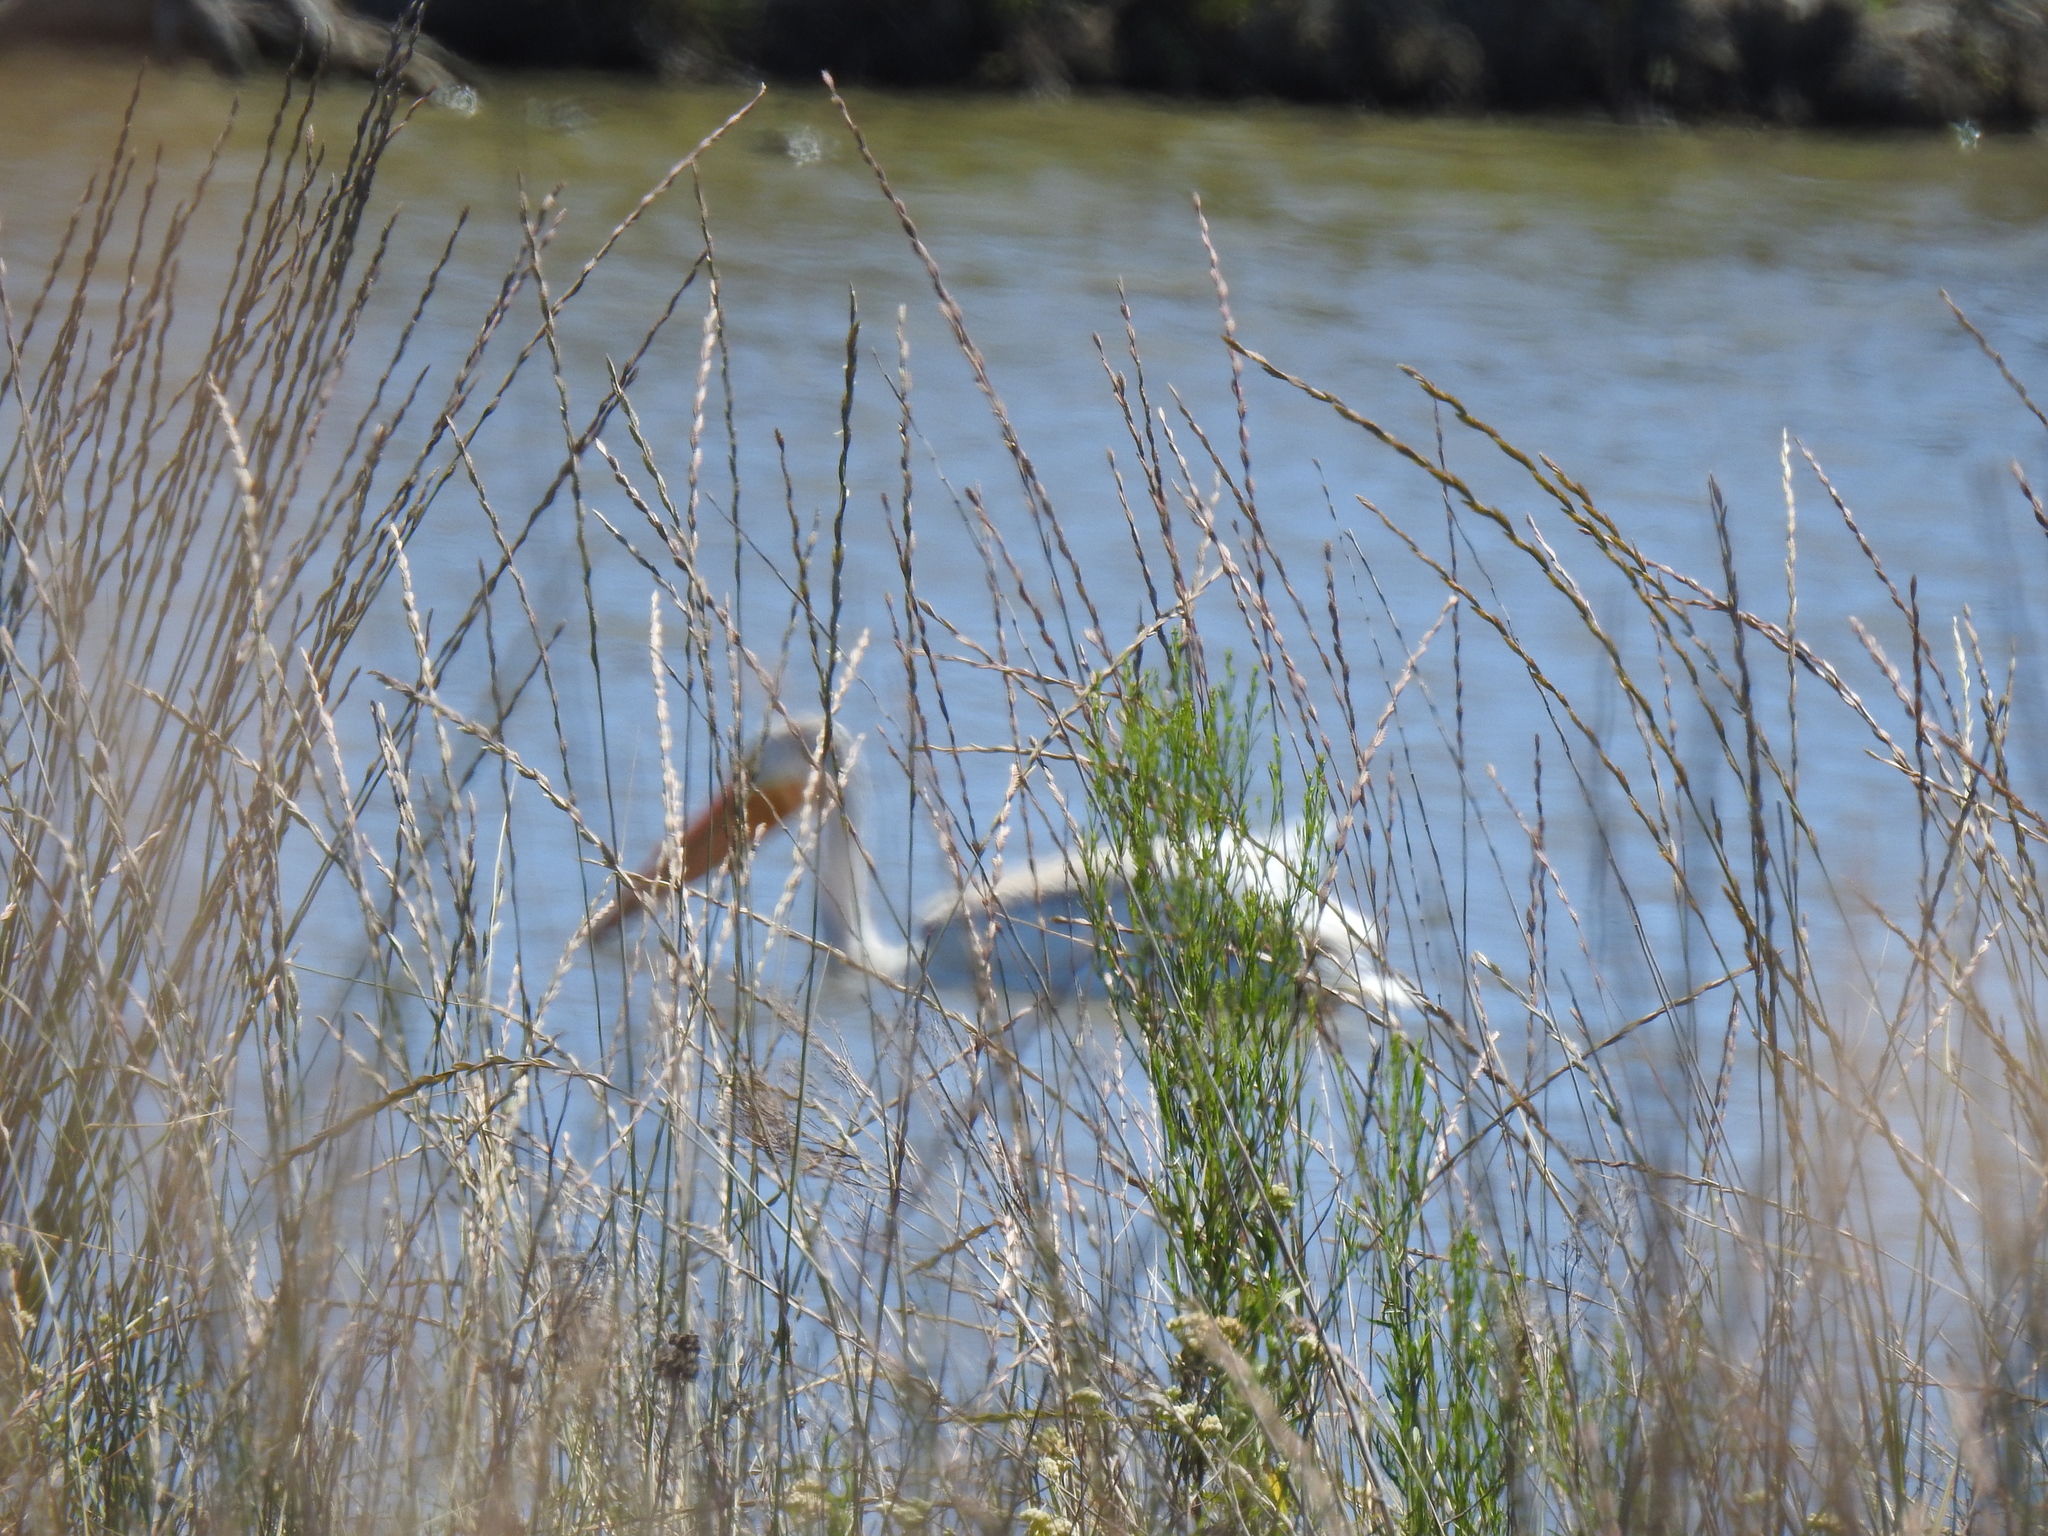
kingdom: Animalia
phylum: Chordata
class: Aves
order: Pelecaniformes
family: Pelecanidae
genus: Pelecanus
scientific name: Pelecanus erythrorhynchos
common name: American white pelican
